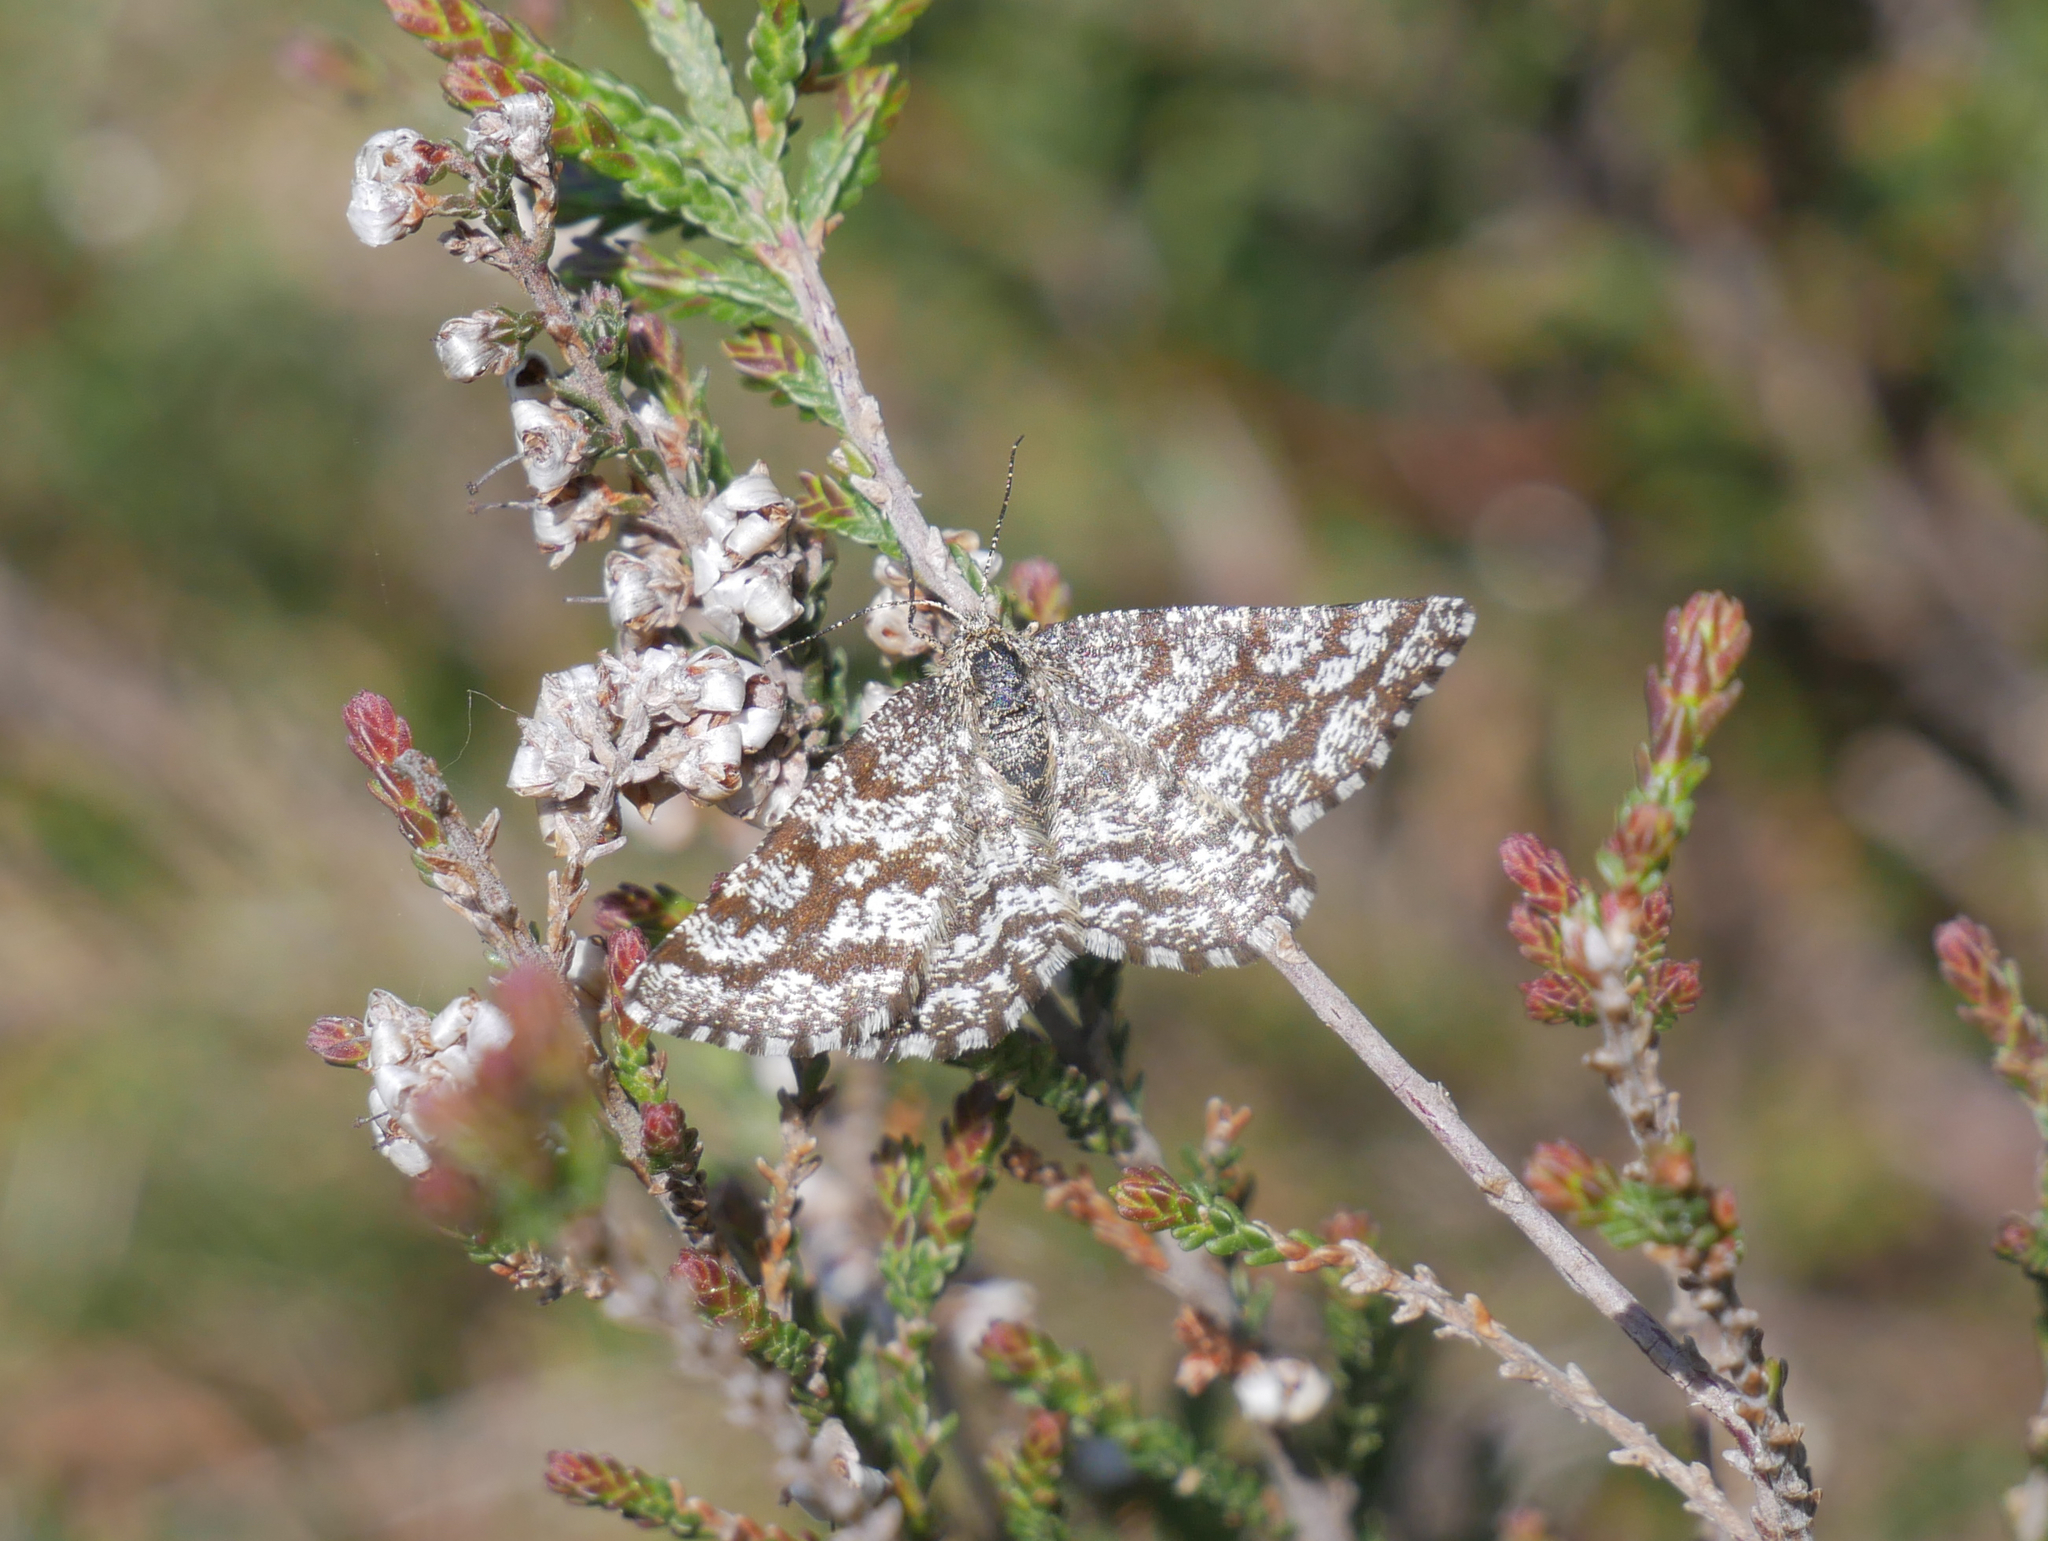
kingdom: Animalia
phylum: Arthropoda
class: Insecta
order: Lepidoptera
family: Geometridae
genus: Ematurga
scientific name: Ematurga atomaria
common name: Common heath
